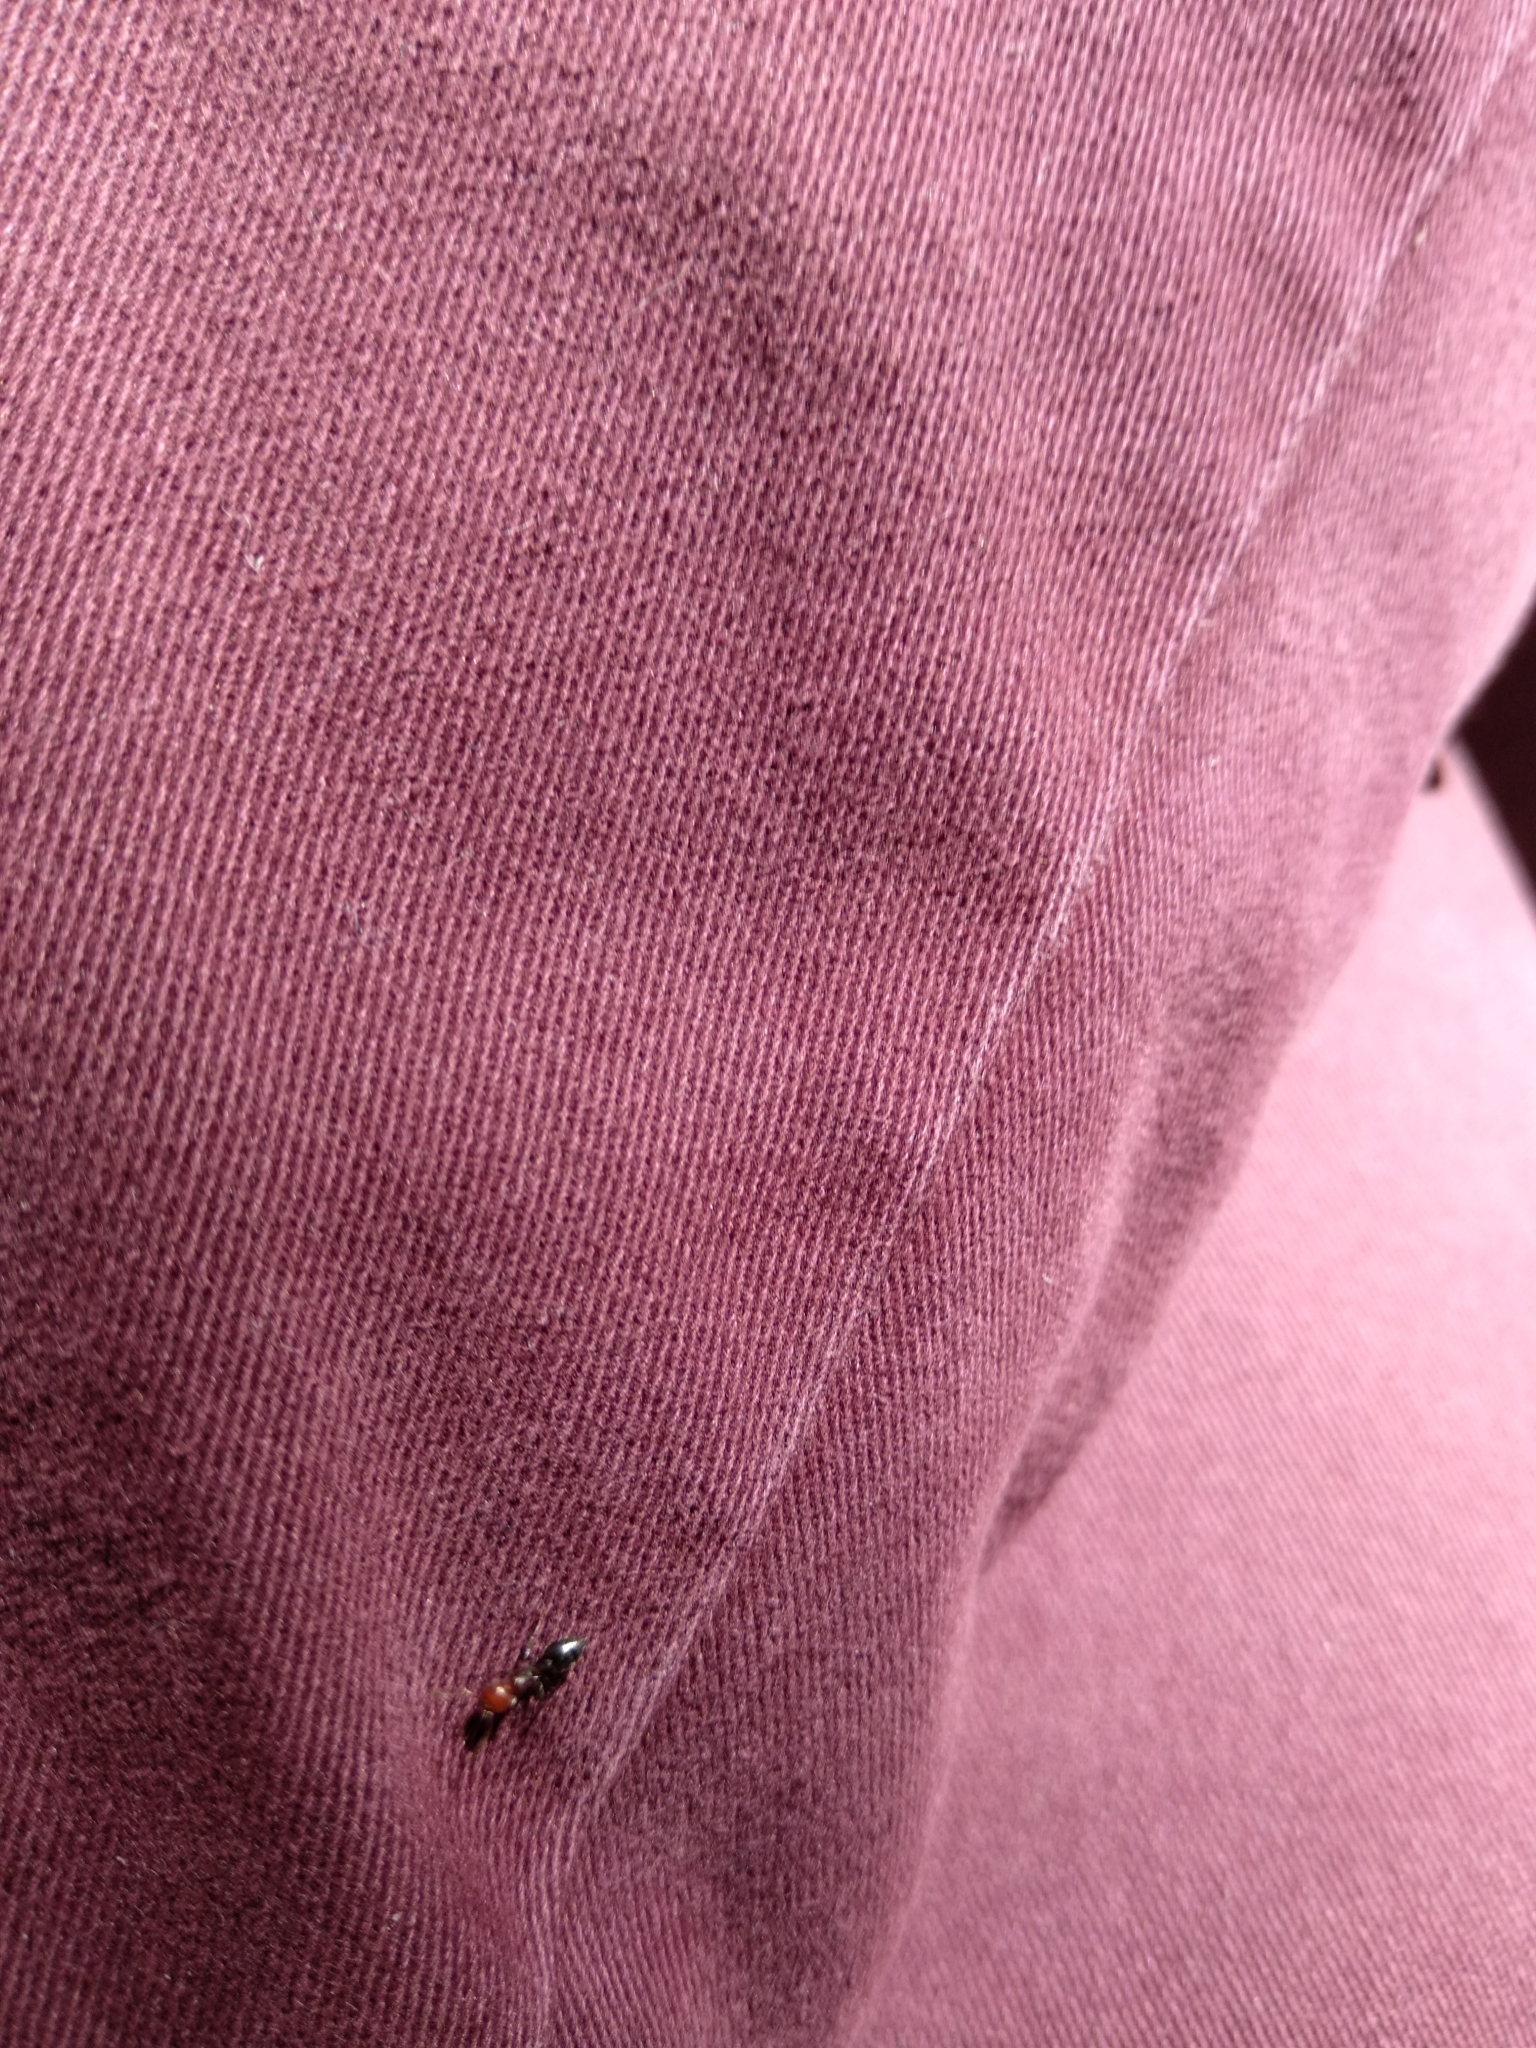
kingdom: Animalia
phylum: Arthropoda
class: Insecta
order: Hymenoptera
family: Formicidae
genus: Crematogaster
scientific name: Crematogaster scutellaris
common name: Fourmi du liège
